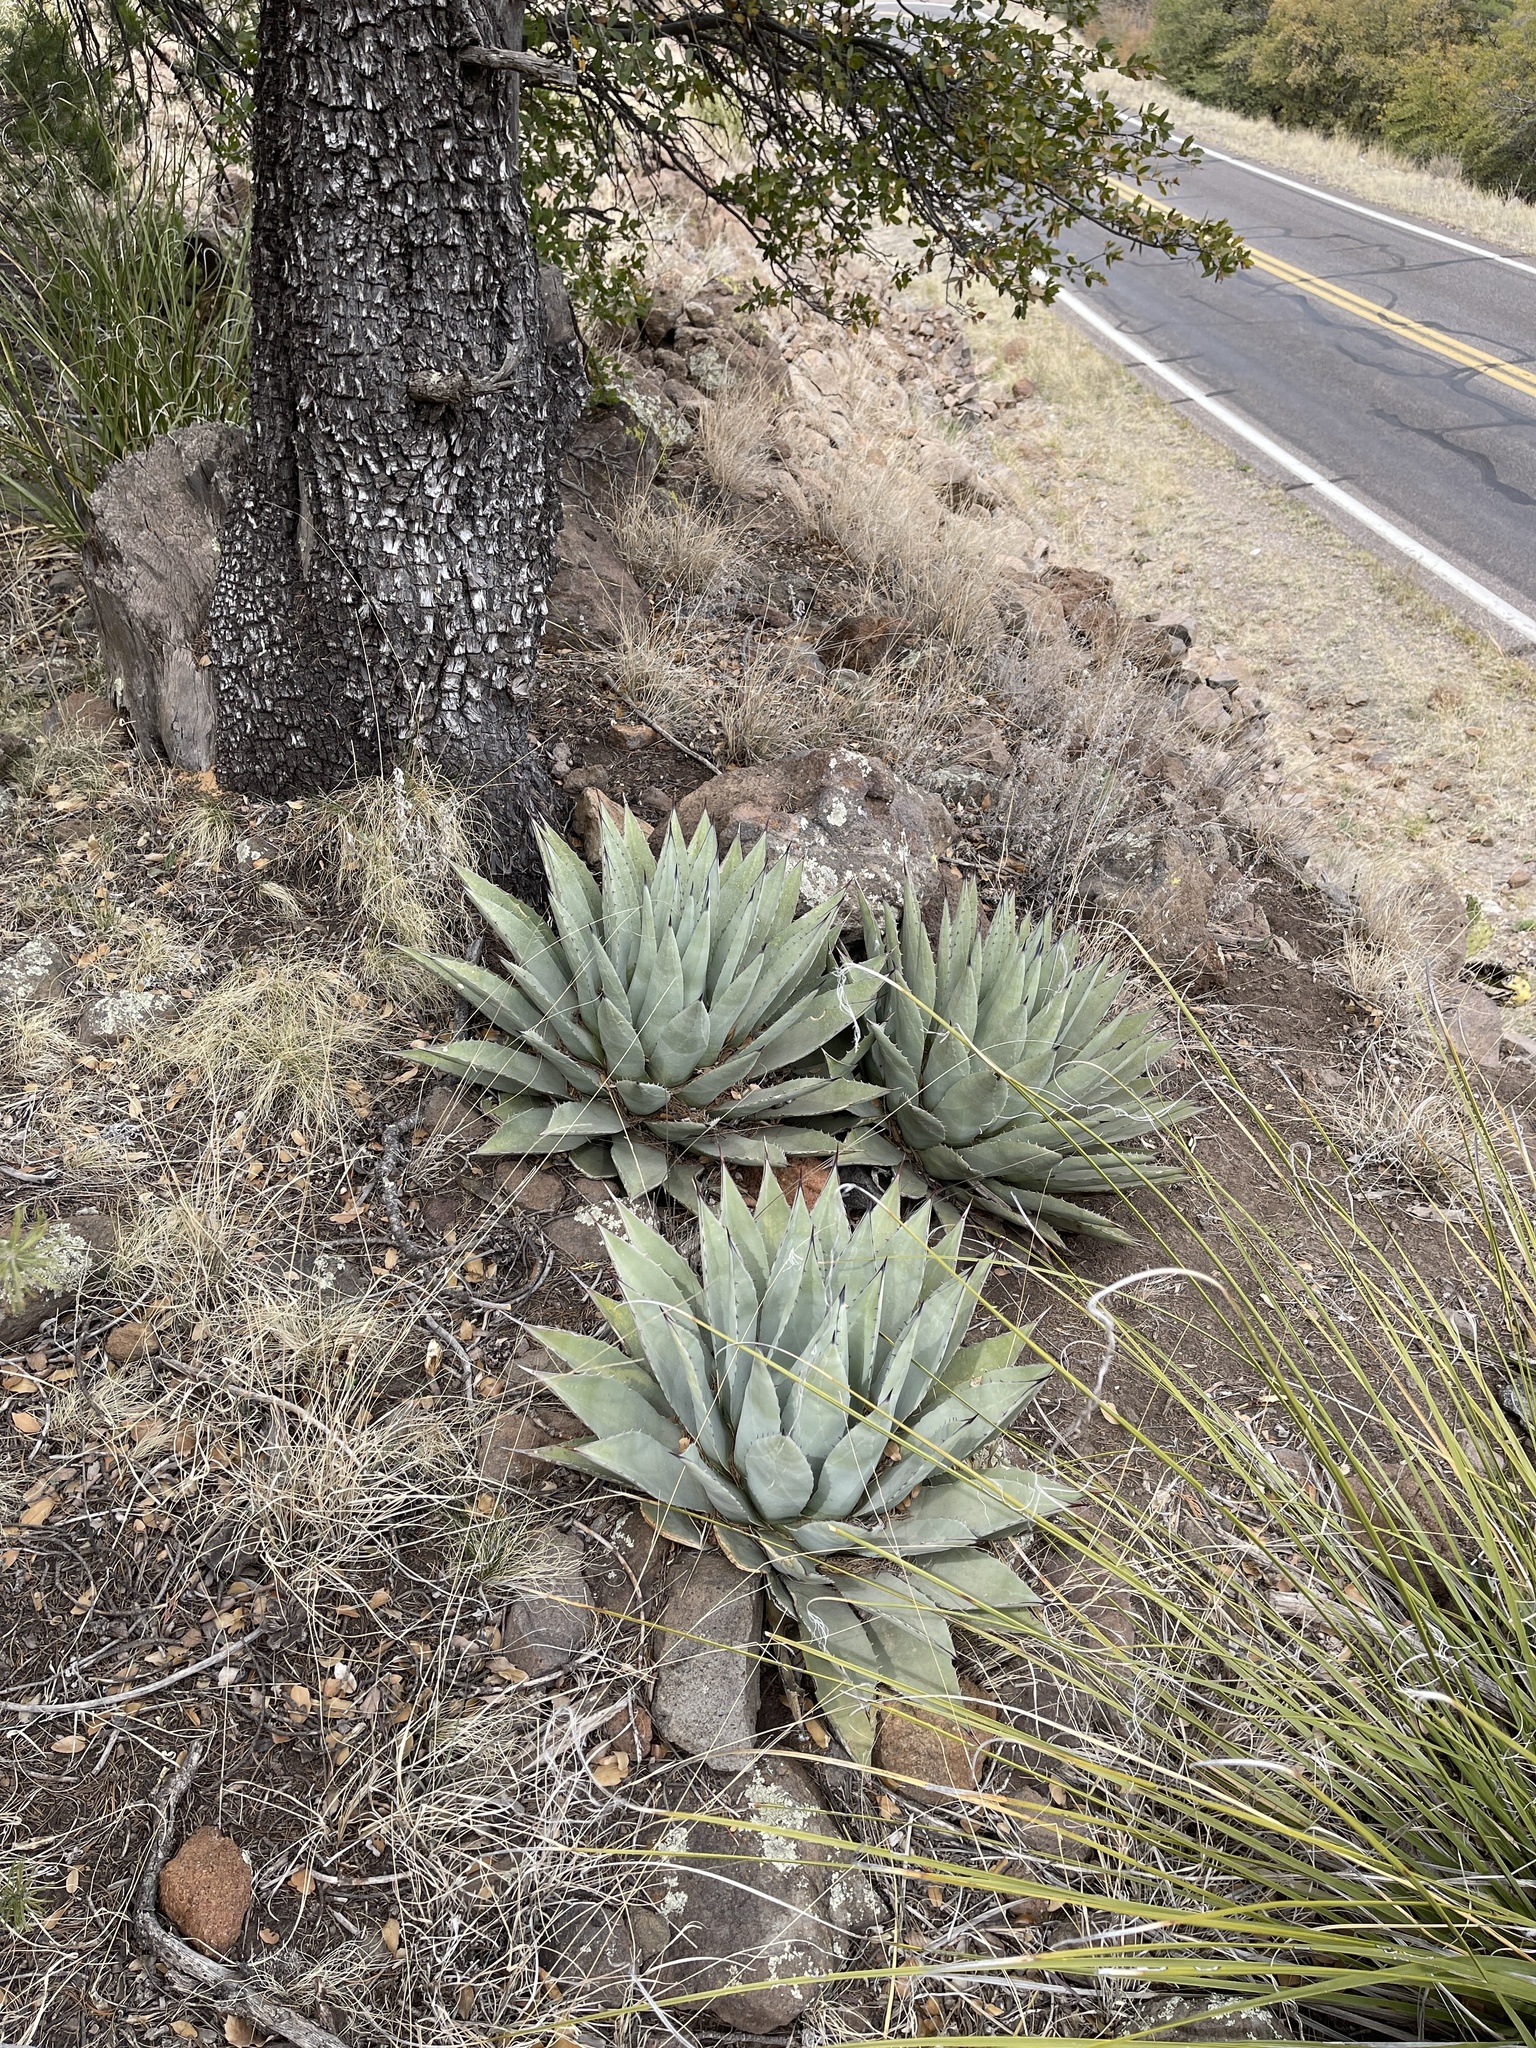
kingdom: Plantae
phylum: Tracheophyta
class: Liliopsida
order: Asparagales
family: Asparagaceae
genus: Agave
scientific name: Agave parryi
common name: Parry's agave
